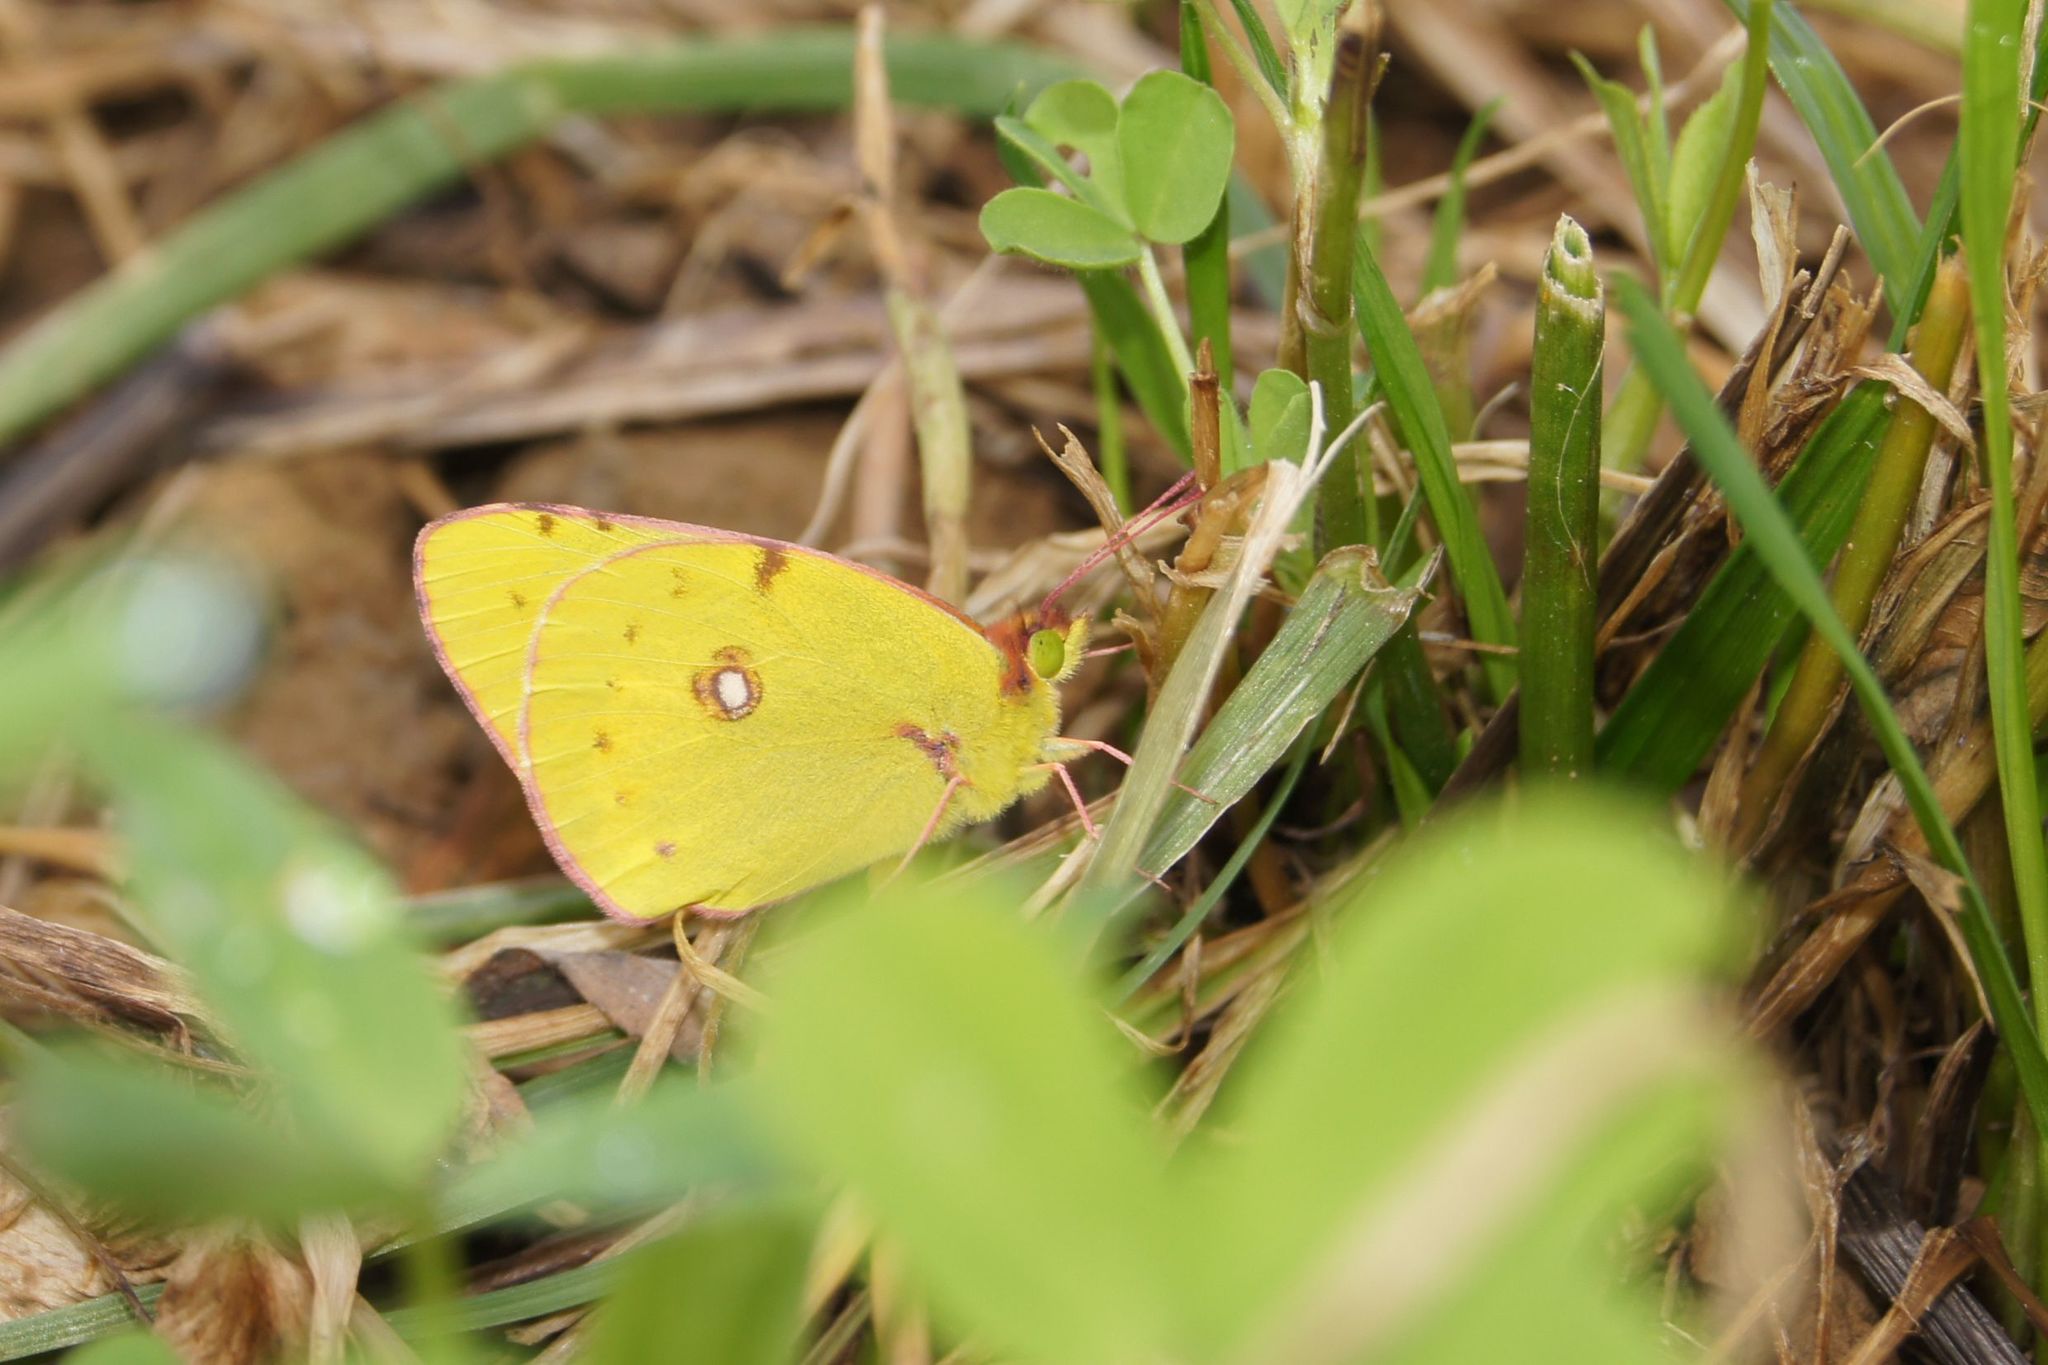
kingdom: Animalia
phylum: Arthropoda
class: Insecta
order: Lepidoptera
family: Pieridae
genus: Colias
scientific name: Colias croceus
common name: Clouded yellow
